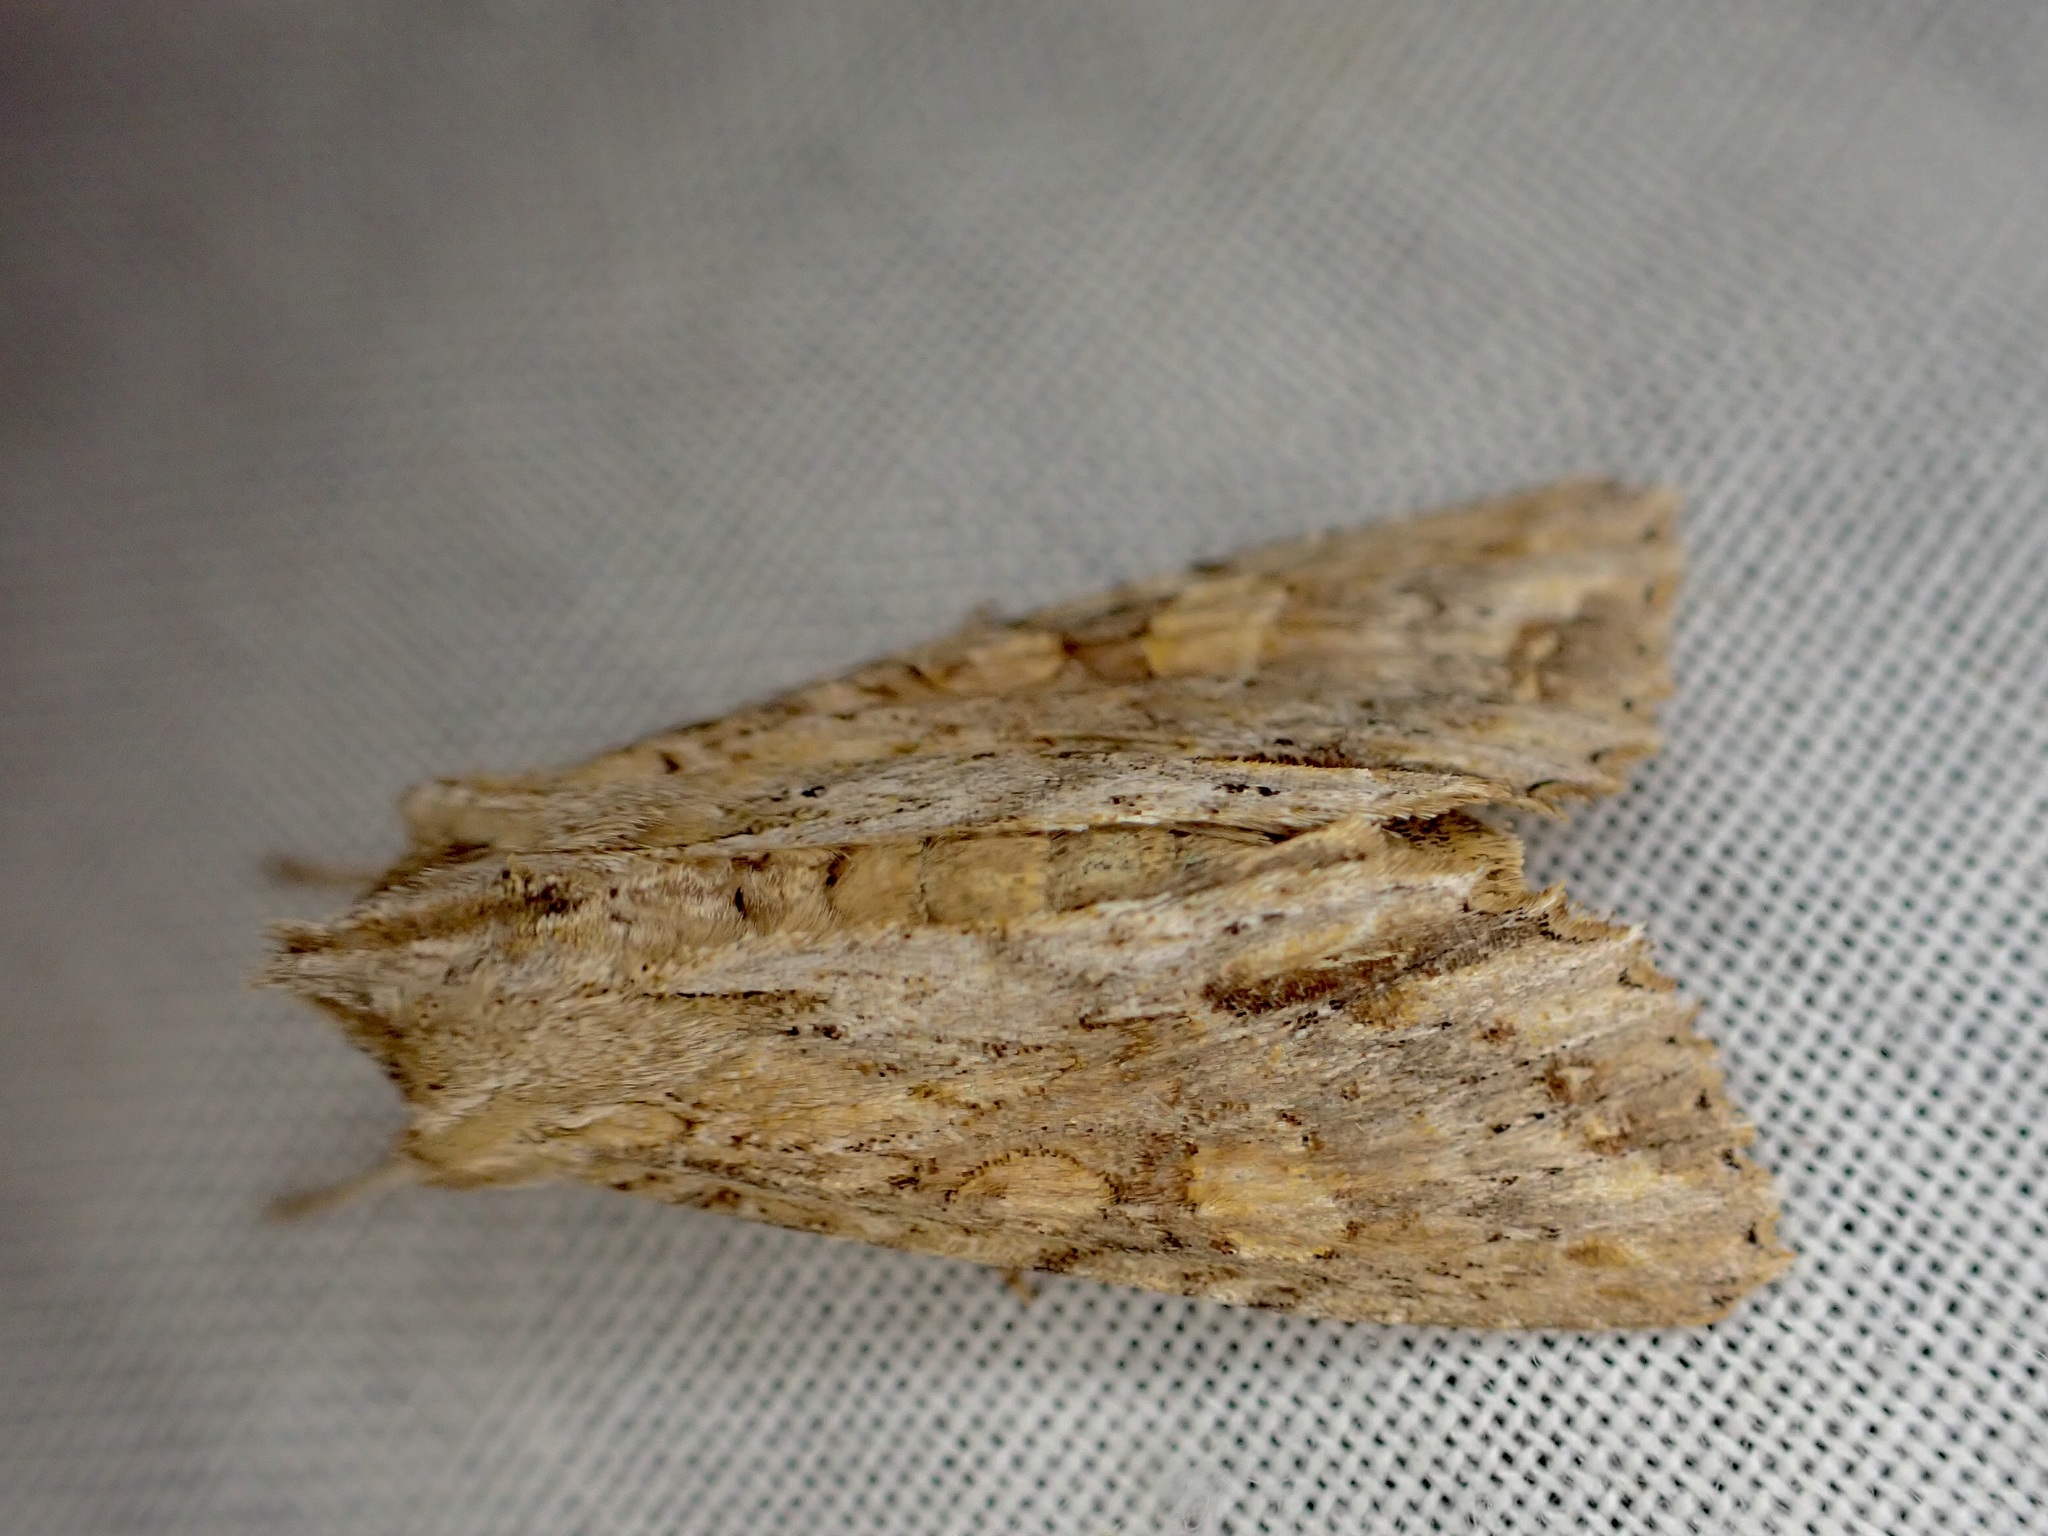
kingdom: Animalia
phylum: Arthropoda
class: Insecta
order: Lepidoptera
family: Noctuidae
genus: Ichneutica
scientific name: Ichneutica mollis
